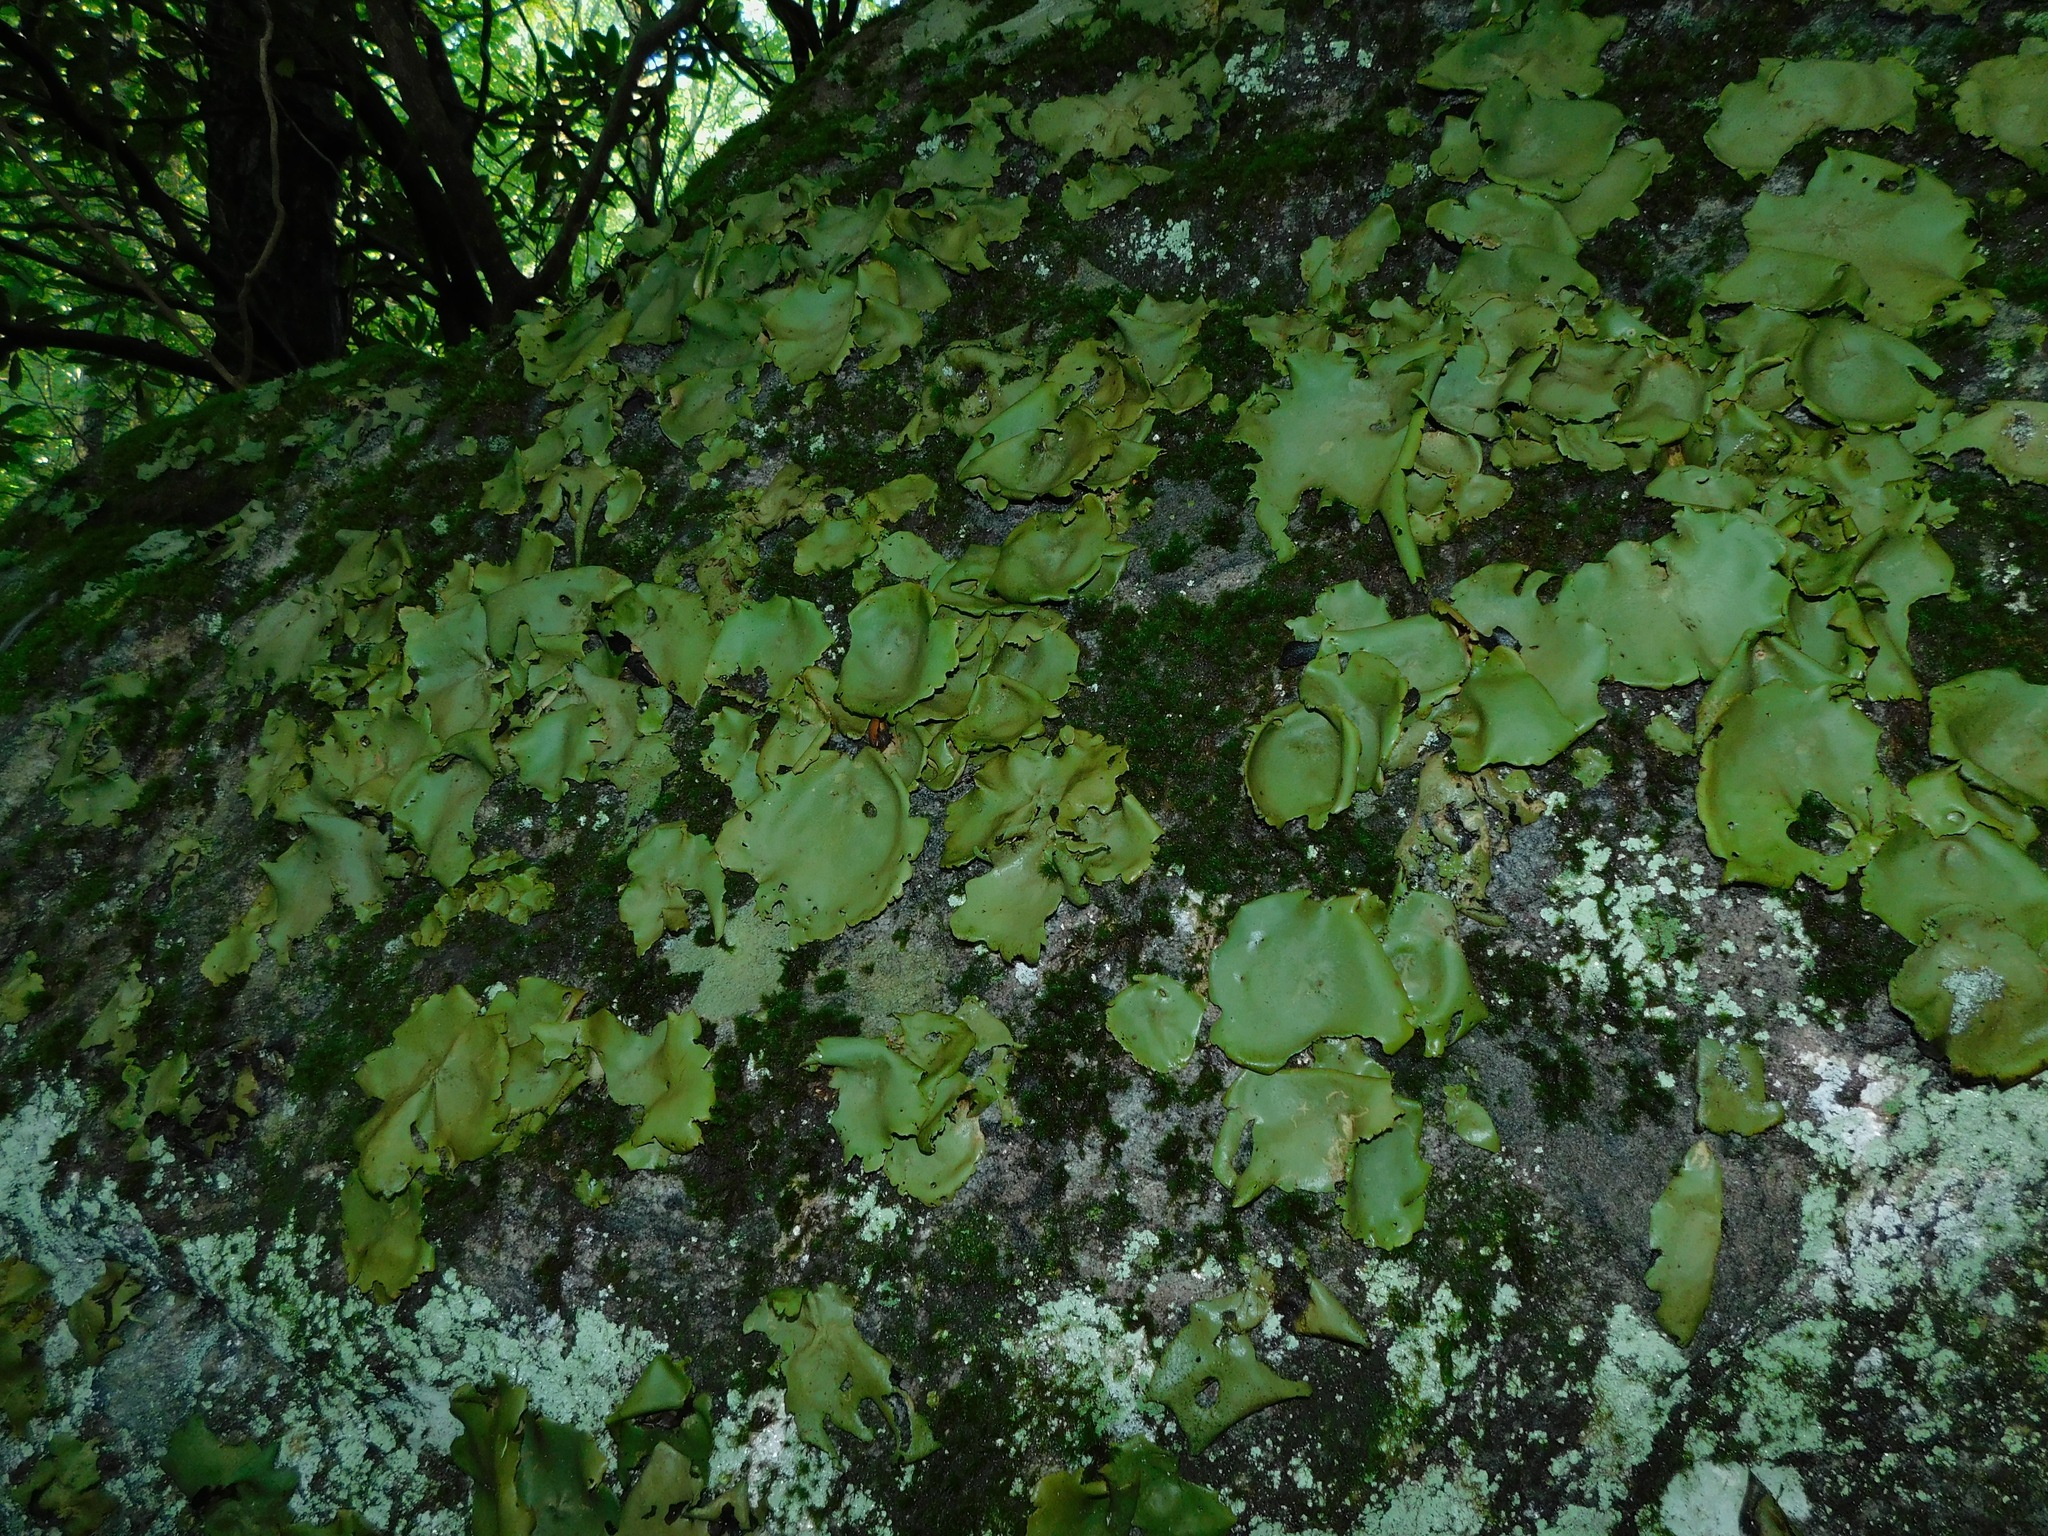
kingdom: Fungi
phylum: Ascomycota
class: Lecanoromycetes
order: Umbilicariales
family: Umbilicariaceae
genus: Umbilicaria
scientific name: Umbilicaria mammulata
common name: Smooth rock tripe
